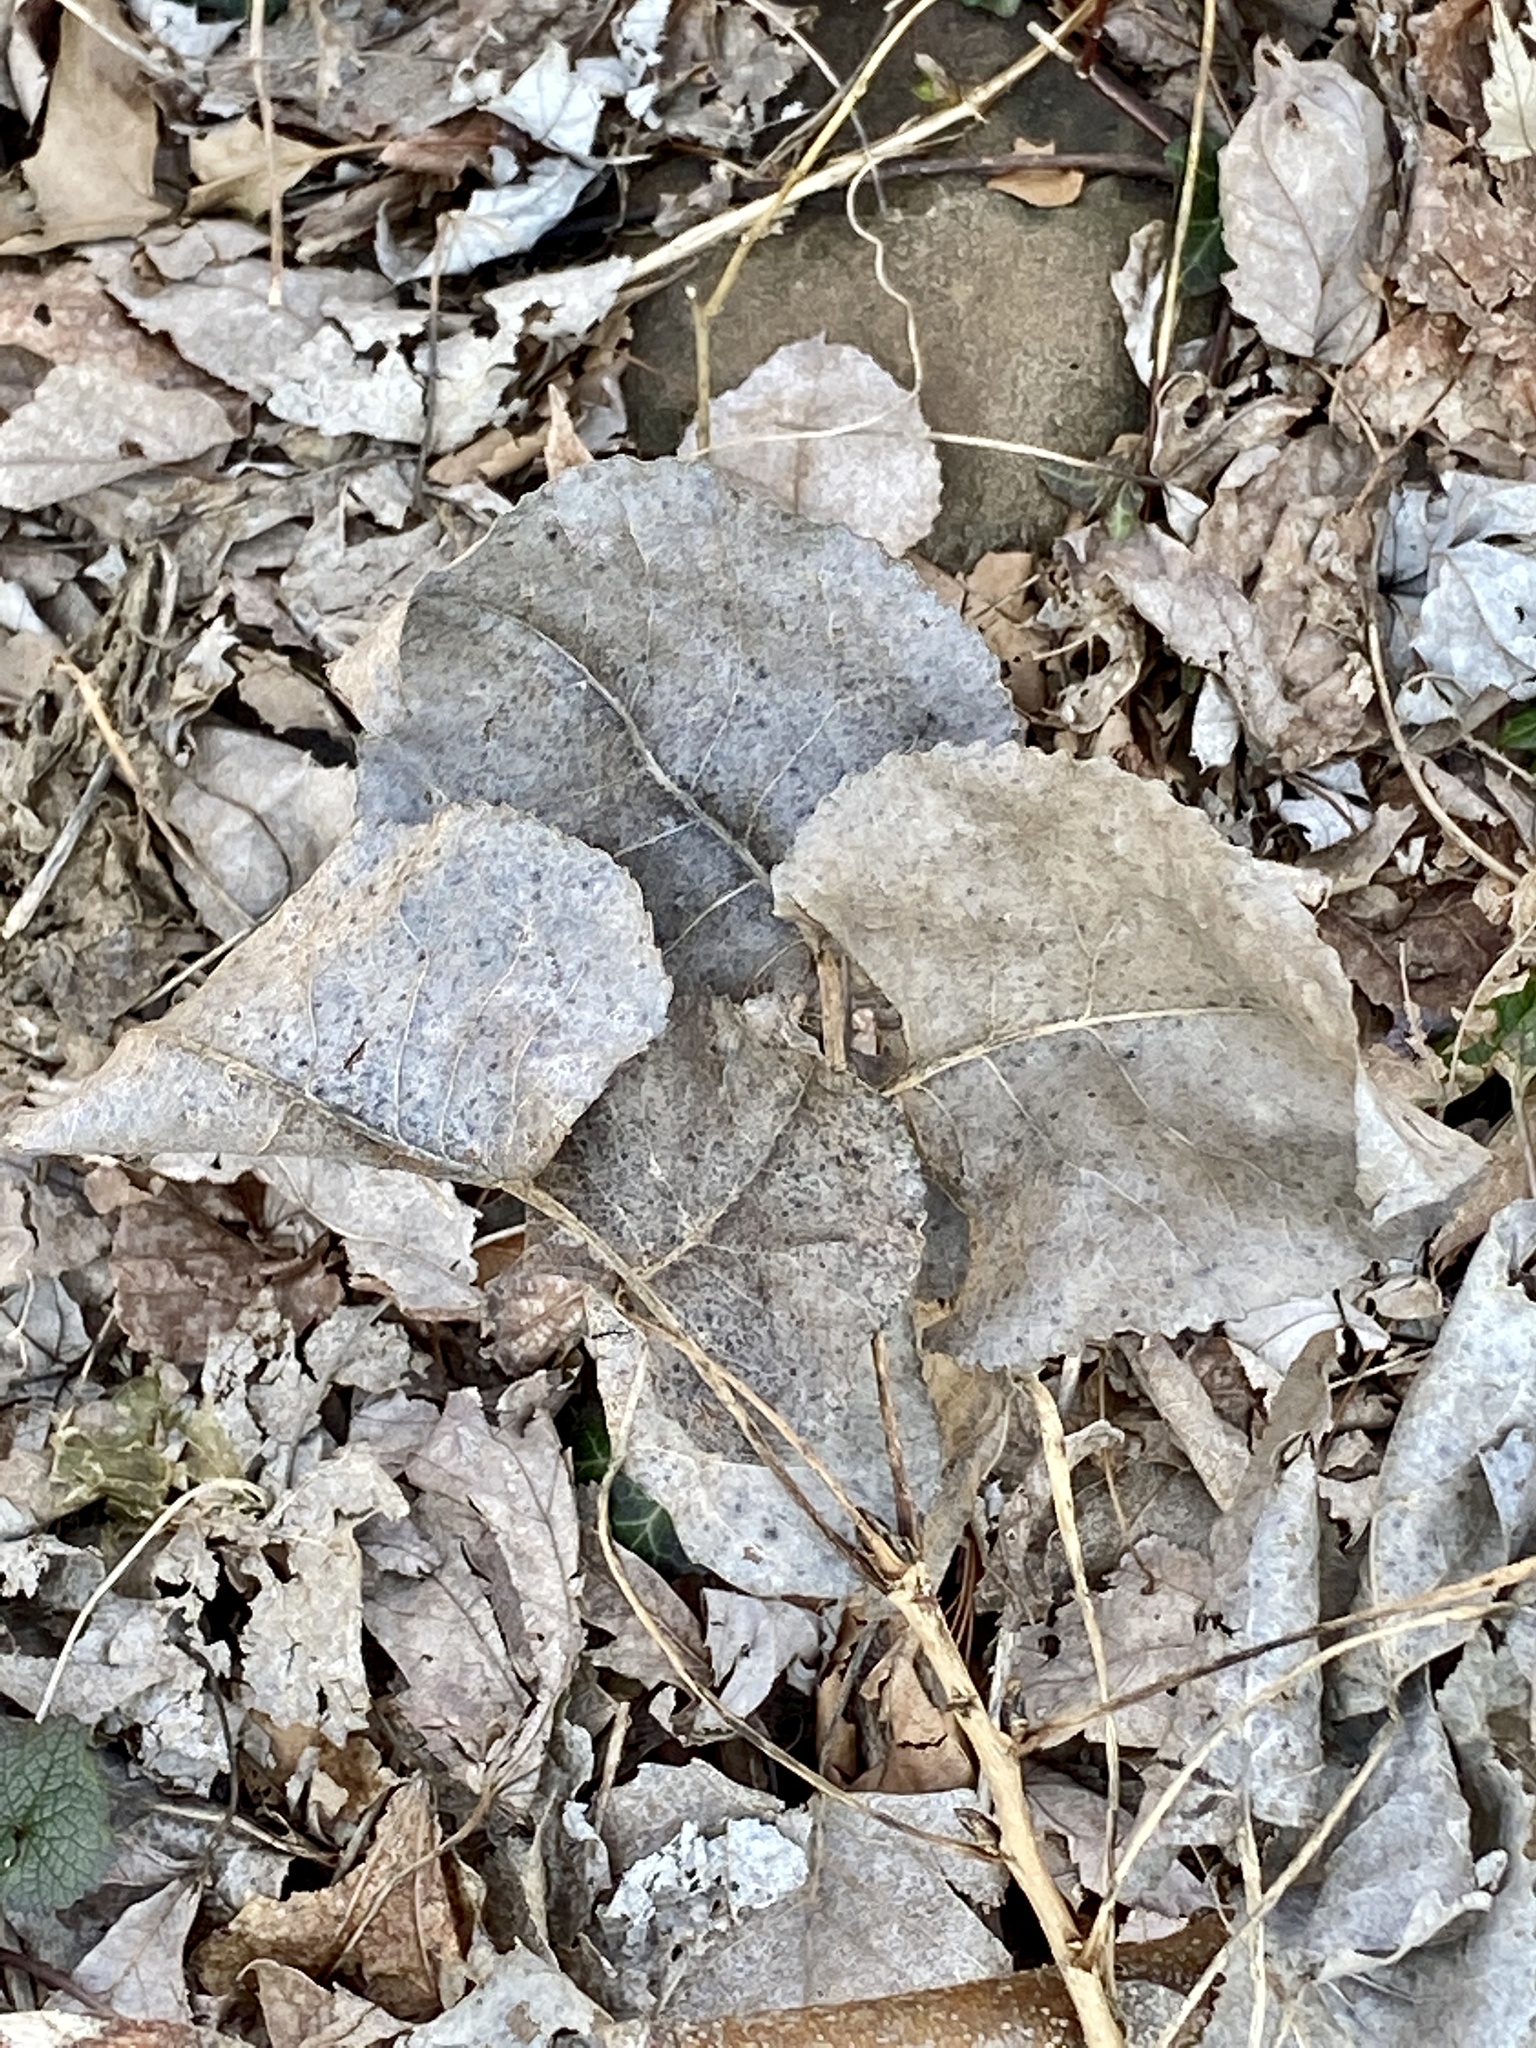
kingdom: Plantae
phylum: Tracheophyta
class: Magnoliopsida
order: Malpighiales
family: Salicaceae
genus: Populus
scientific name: Populus deltoides
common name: Eastern cottonwood
